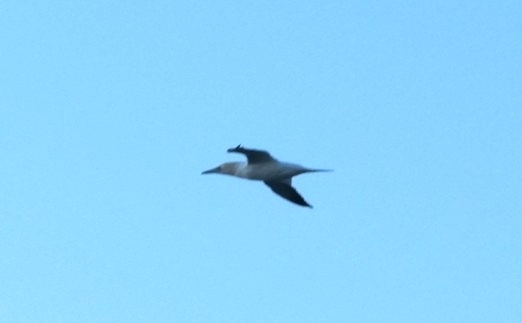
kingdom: Animalia
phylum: Chordata
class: Aves
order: Suliformes
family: Sulidae
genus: Morus
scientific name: Morus bassanus
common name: Northern gannet
